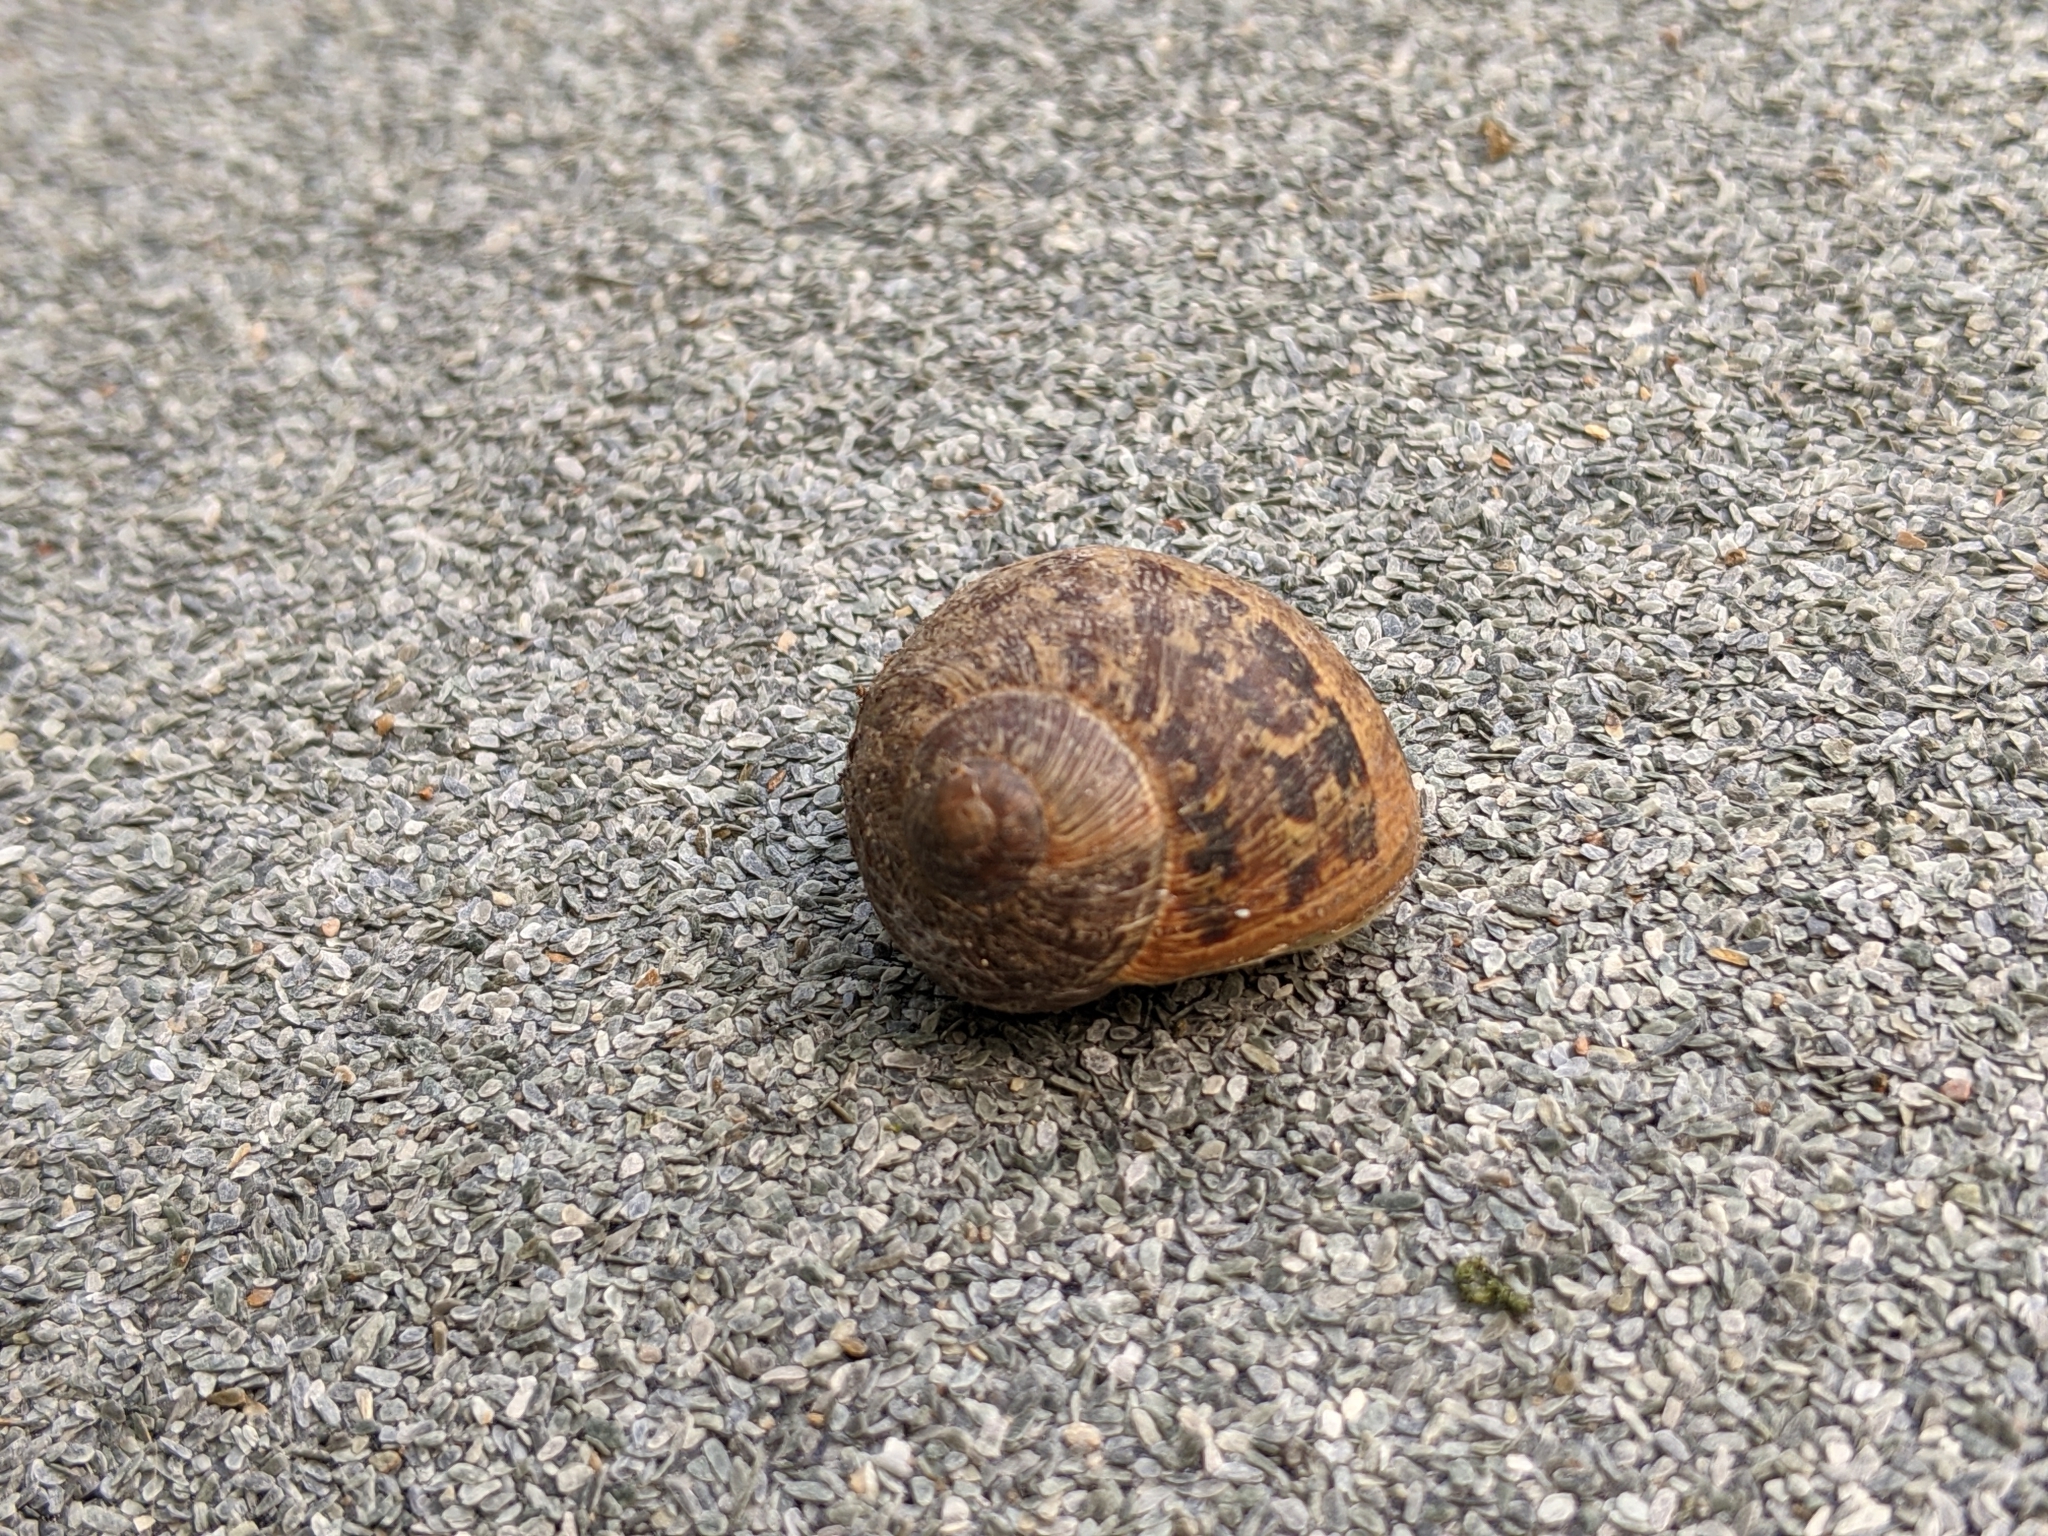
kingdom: Animalia
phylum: Mollusca
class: Gastropoda
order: Stylommatophora
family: Helicidae
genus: Cornu
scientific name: Cornu aspersum
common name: Brown garden snail
